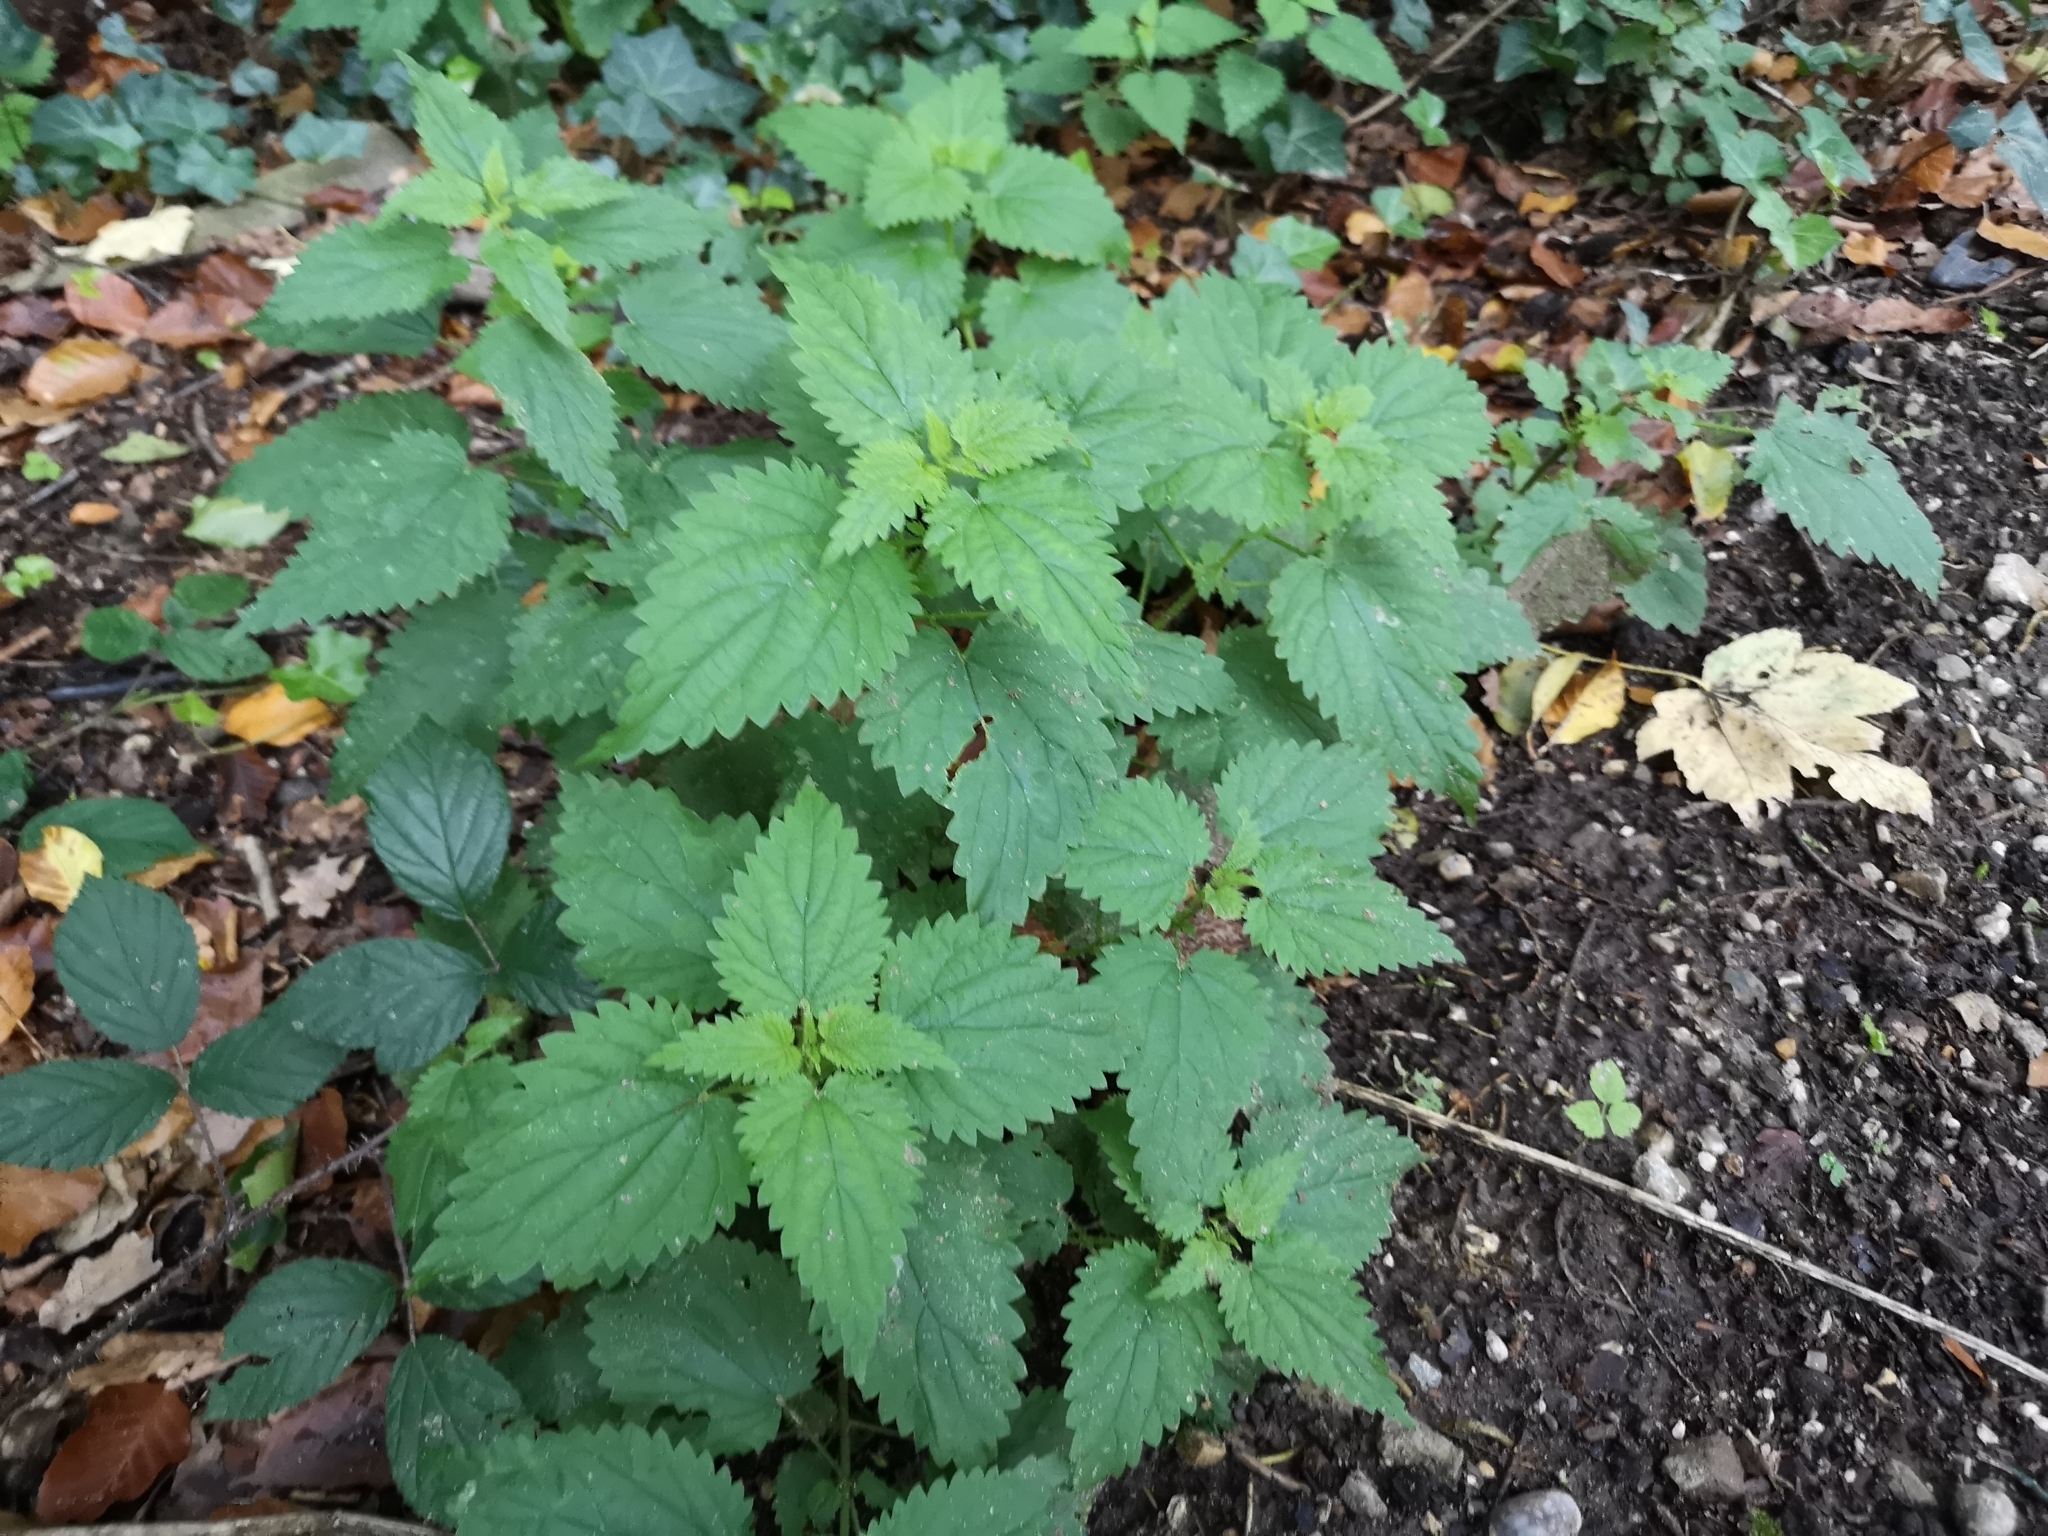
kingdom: Plantae
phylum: Tracheophyta
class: Magnoliopsida
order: Rosales
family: Urticaceae
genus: Urtica
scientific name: Urtica dioica
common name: Common nettle
